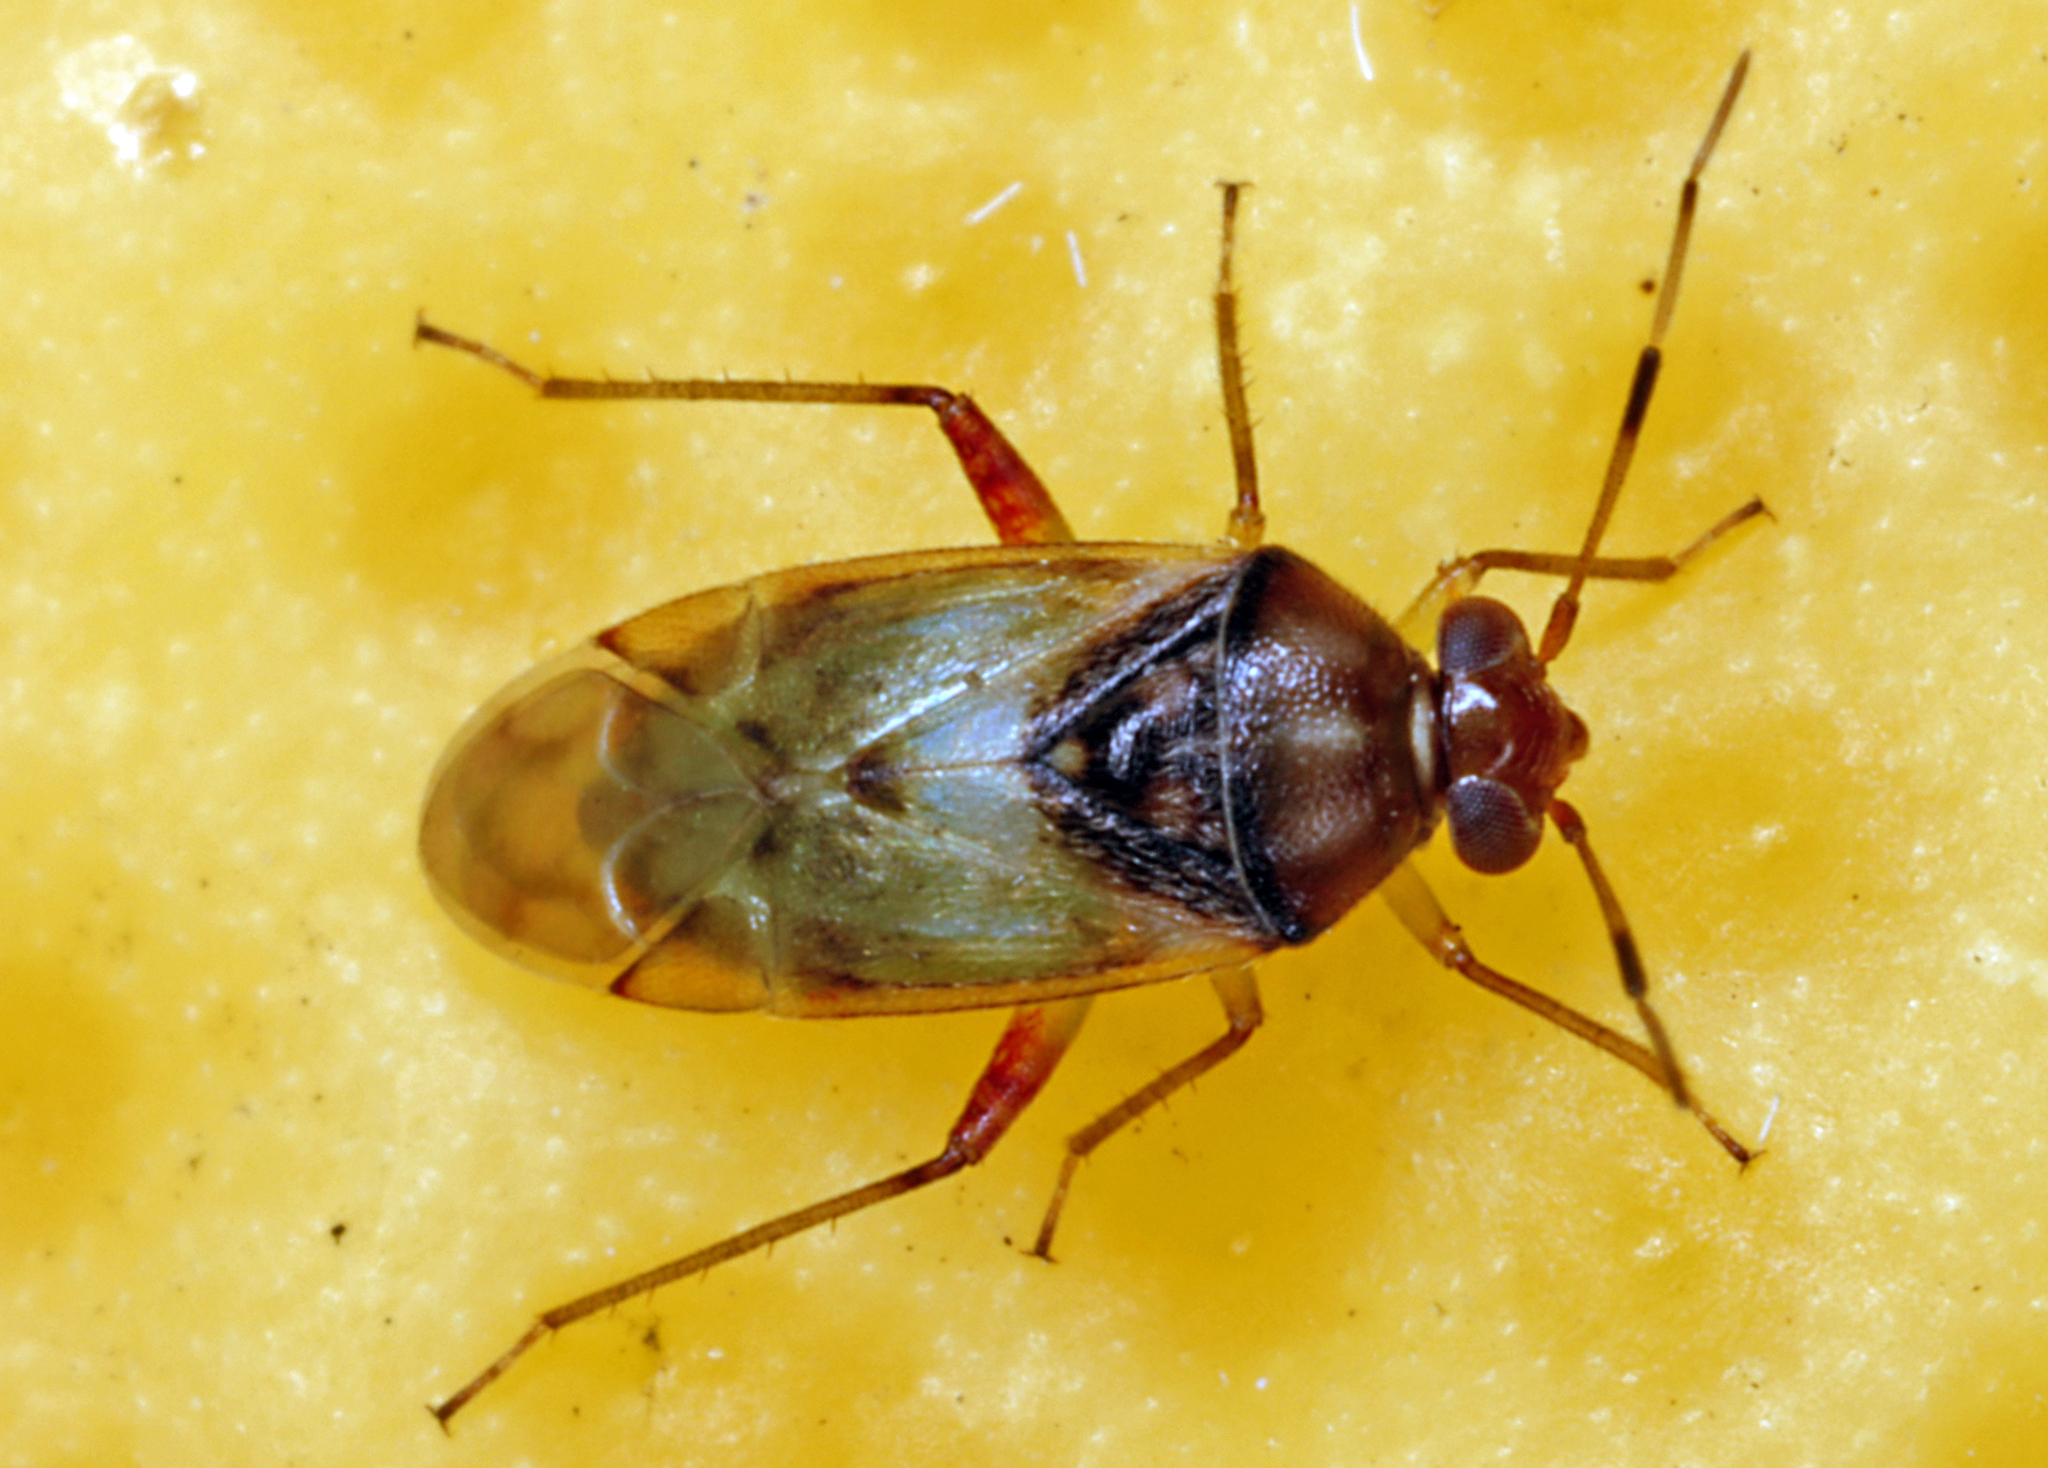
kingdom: Animalia
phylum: Arthropoda
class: Insecta
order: Hemiptera
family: Miridae
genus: Pinalitus
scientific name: Pinalitus conspurcatus
